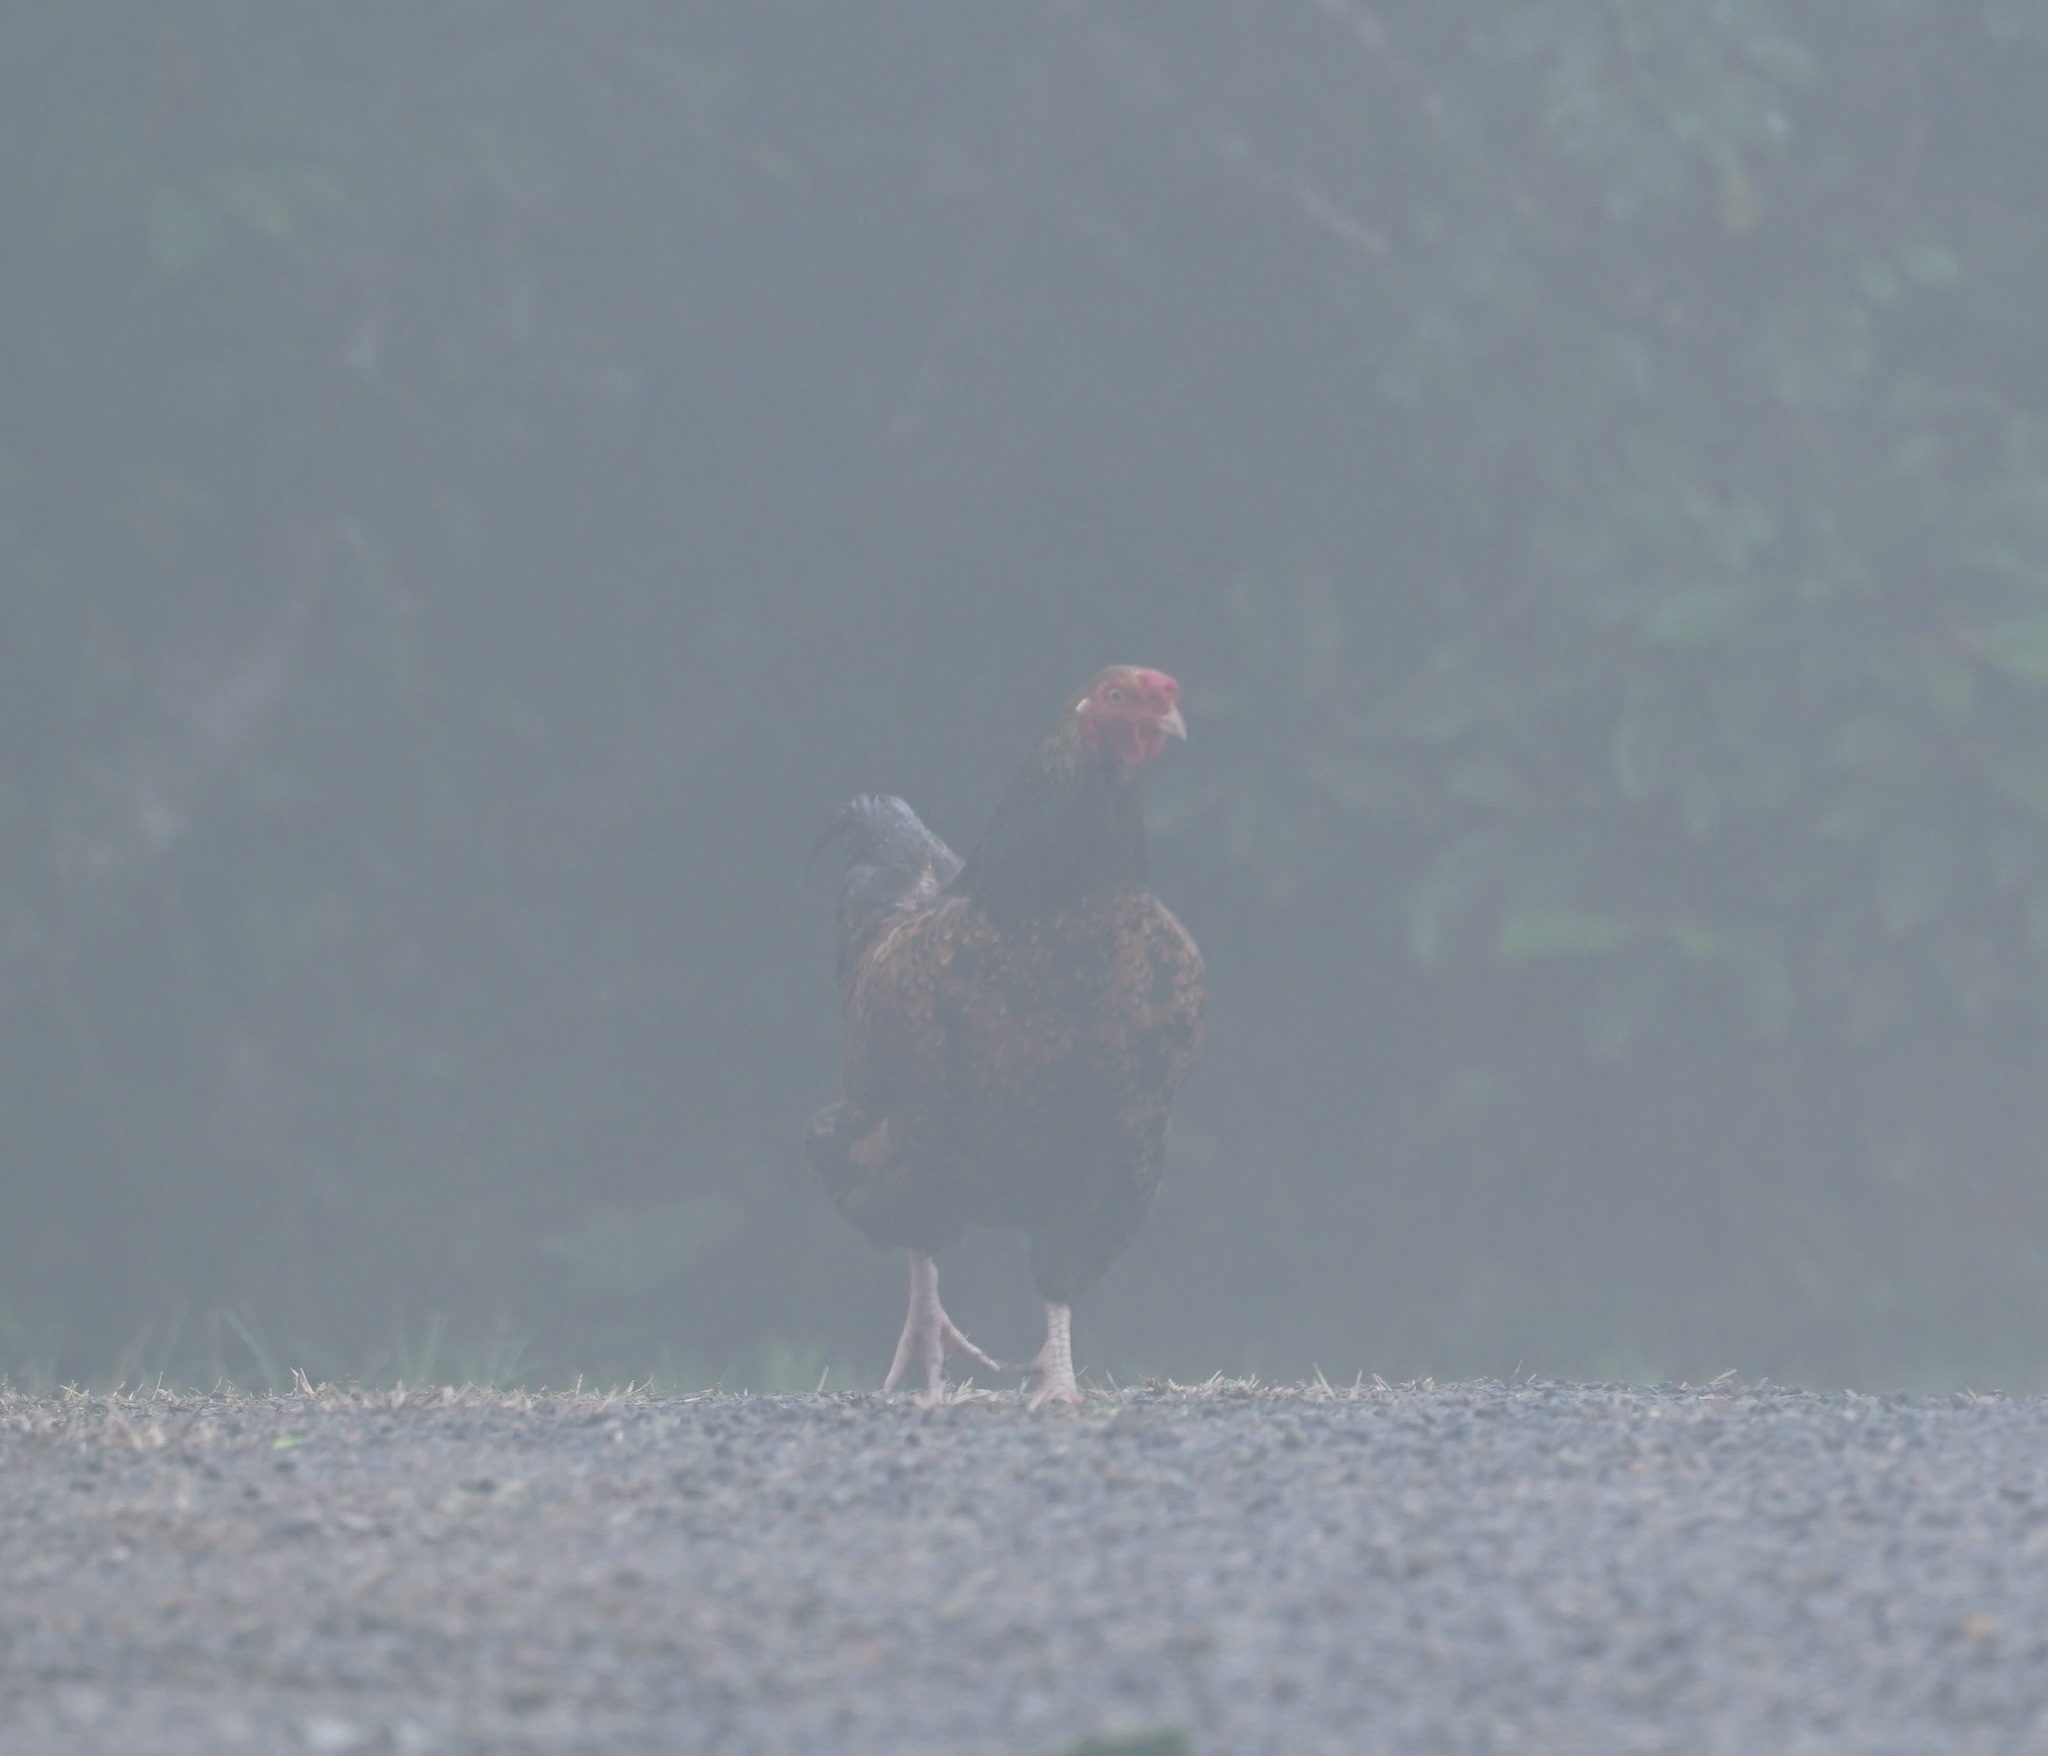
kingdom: Animalia
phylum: Chordata
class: Aves
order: Galliformes
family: Phasianidae
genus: Gallus
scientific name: Gallus gallus
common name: Red junglefowl
